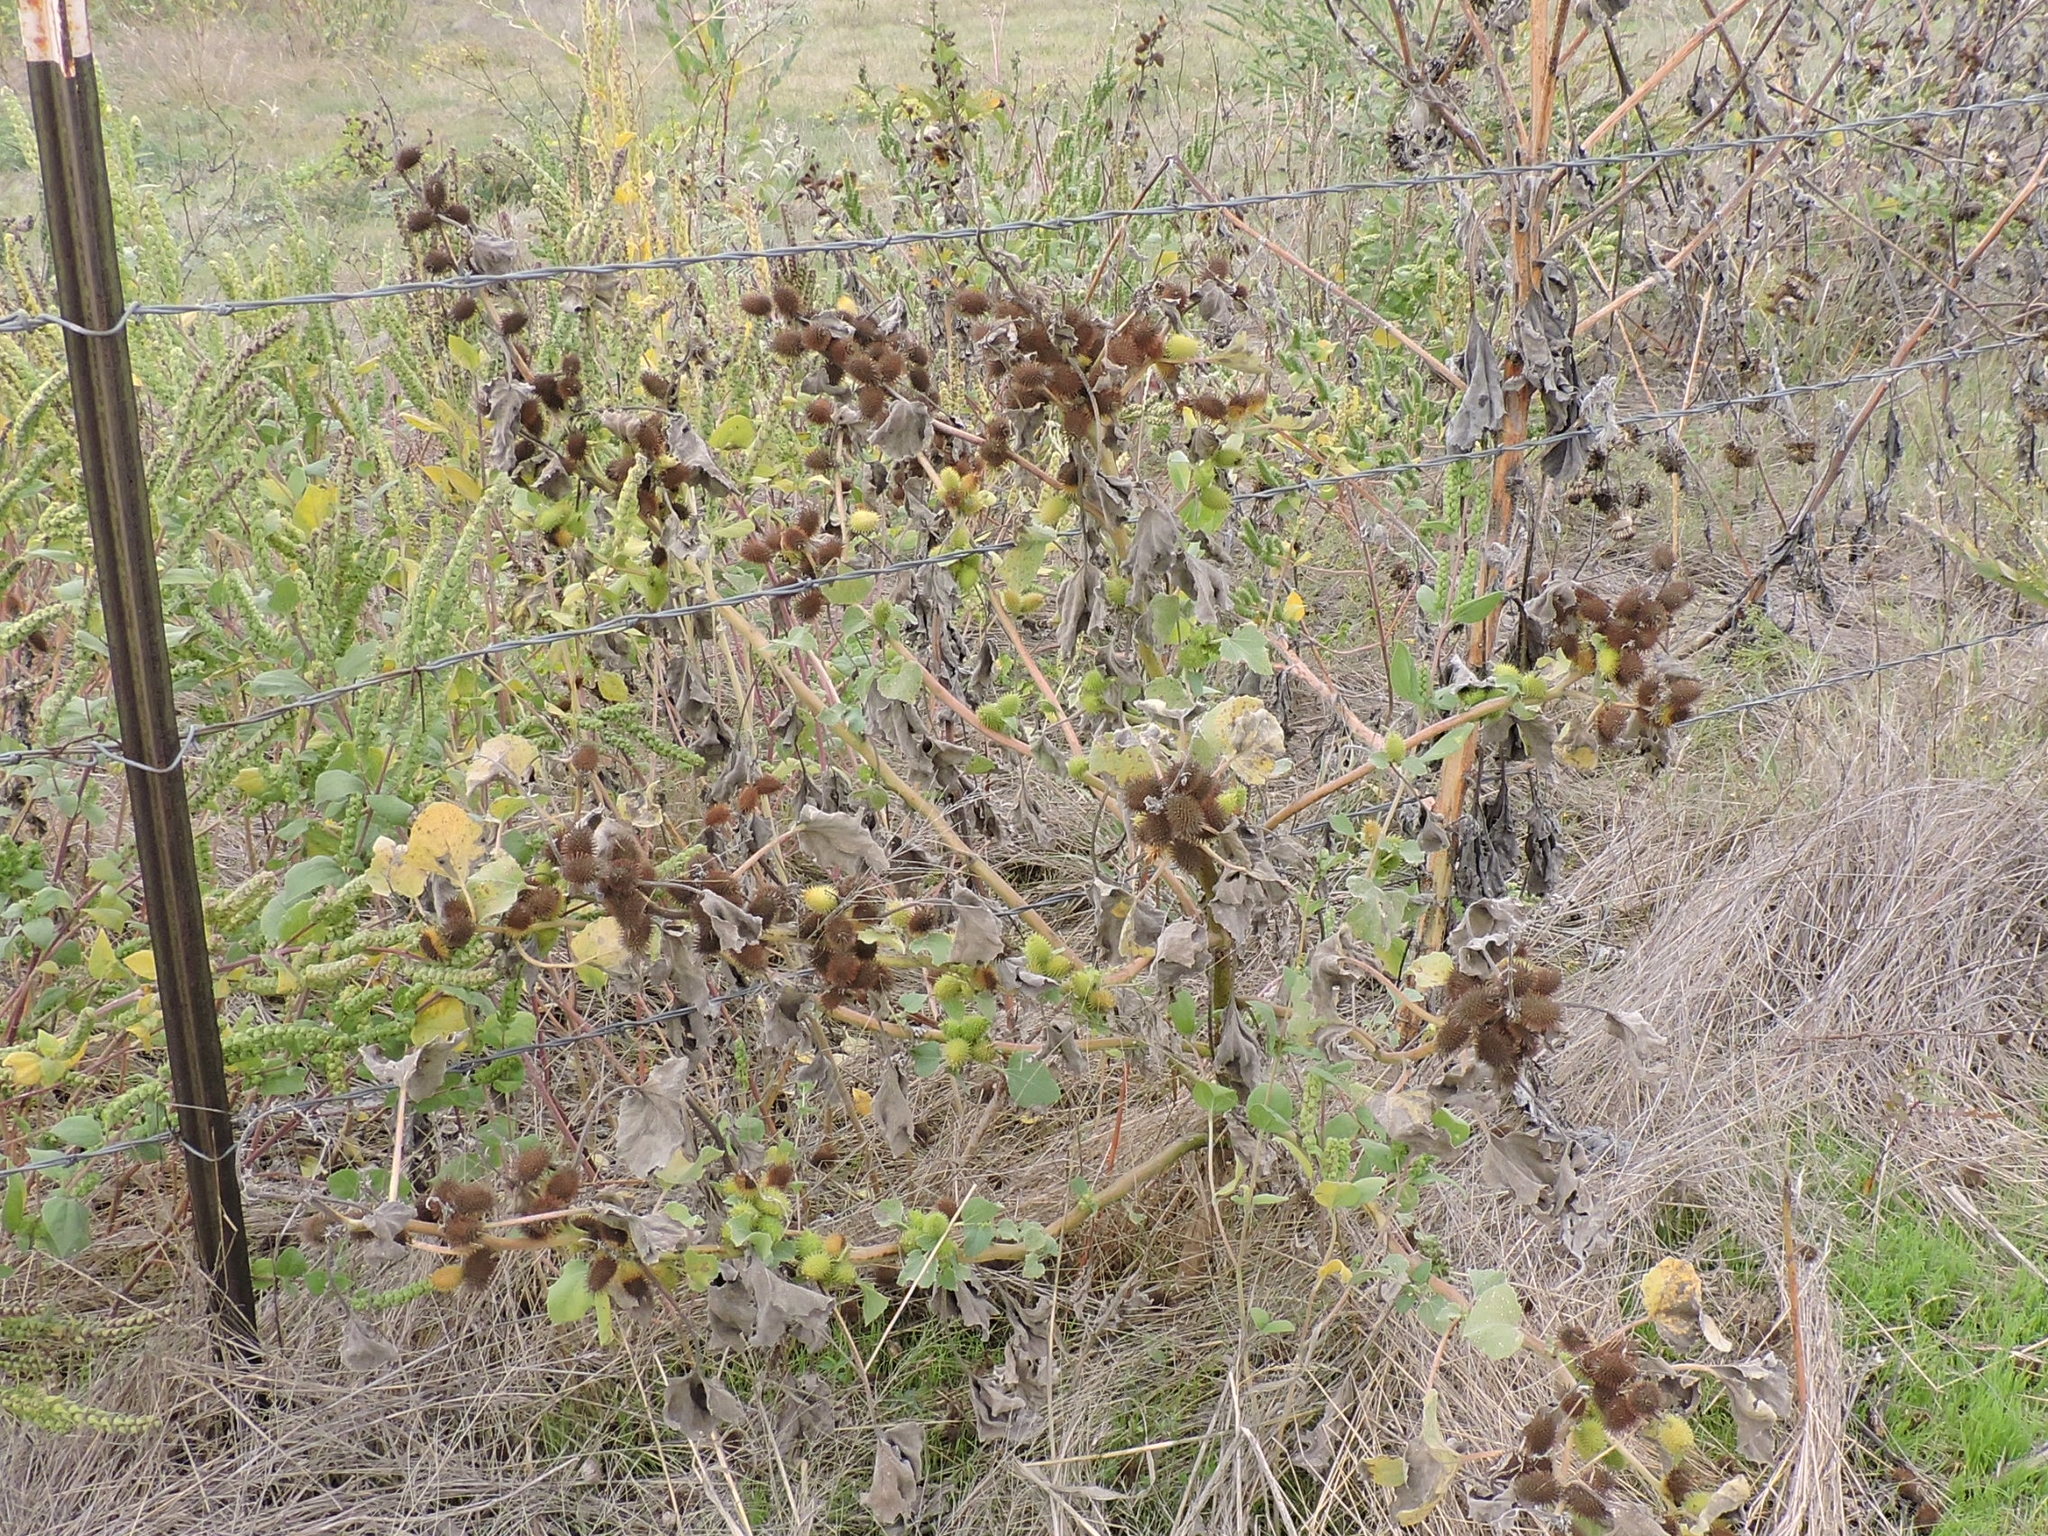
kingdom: Plantae
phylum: Tracheophyta
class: Magnoliopsida
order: Asterales
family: Asteraceae
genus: Xanthium
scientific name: Xanthium strumarium
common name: Rough cocklebur
